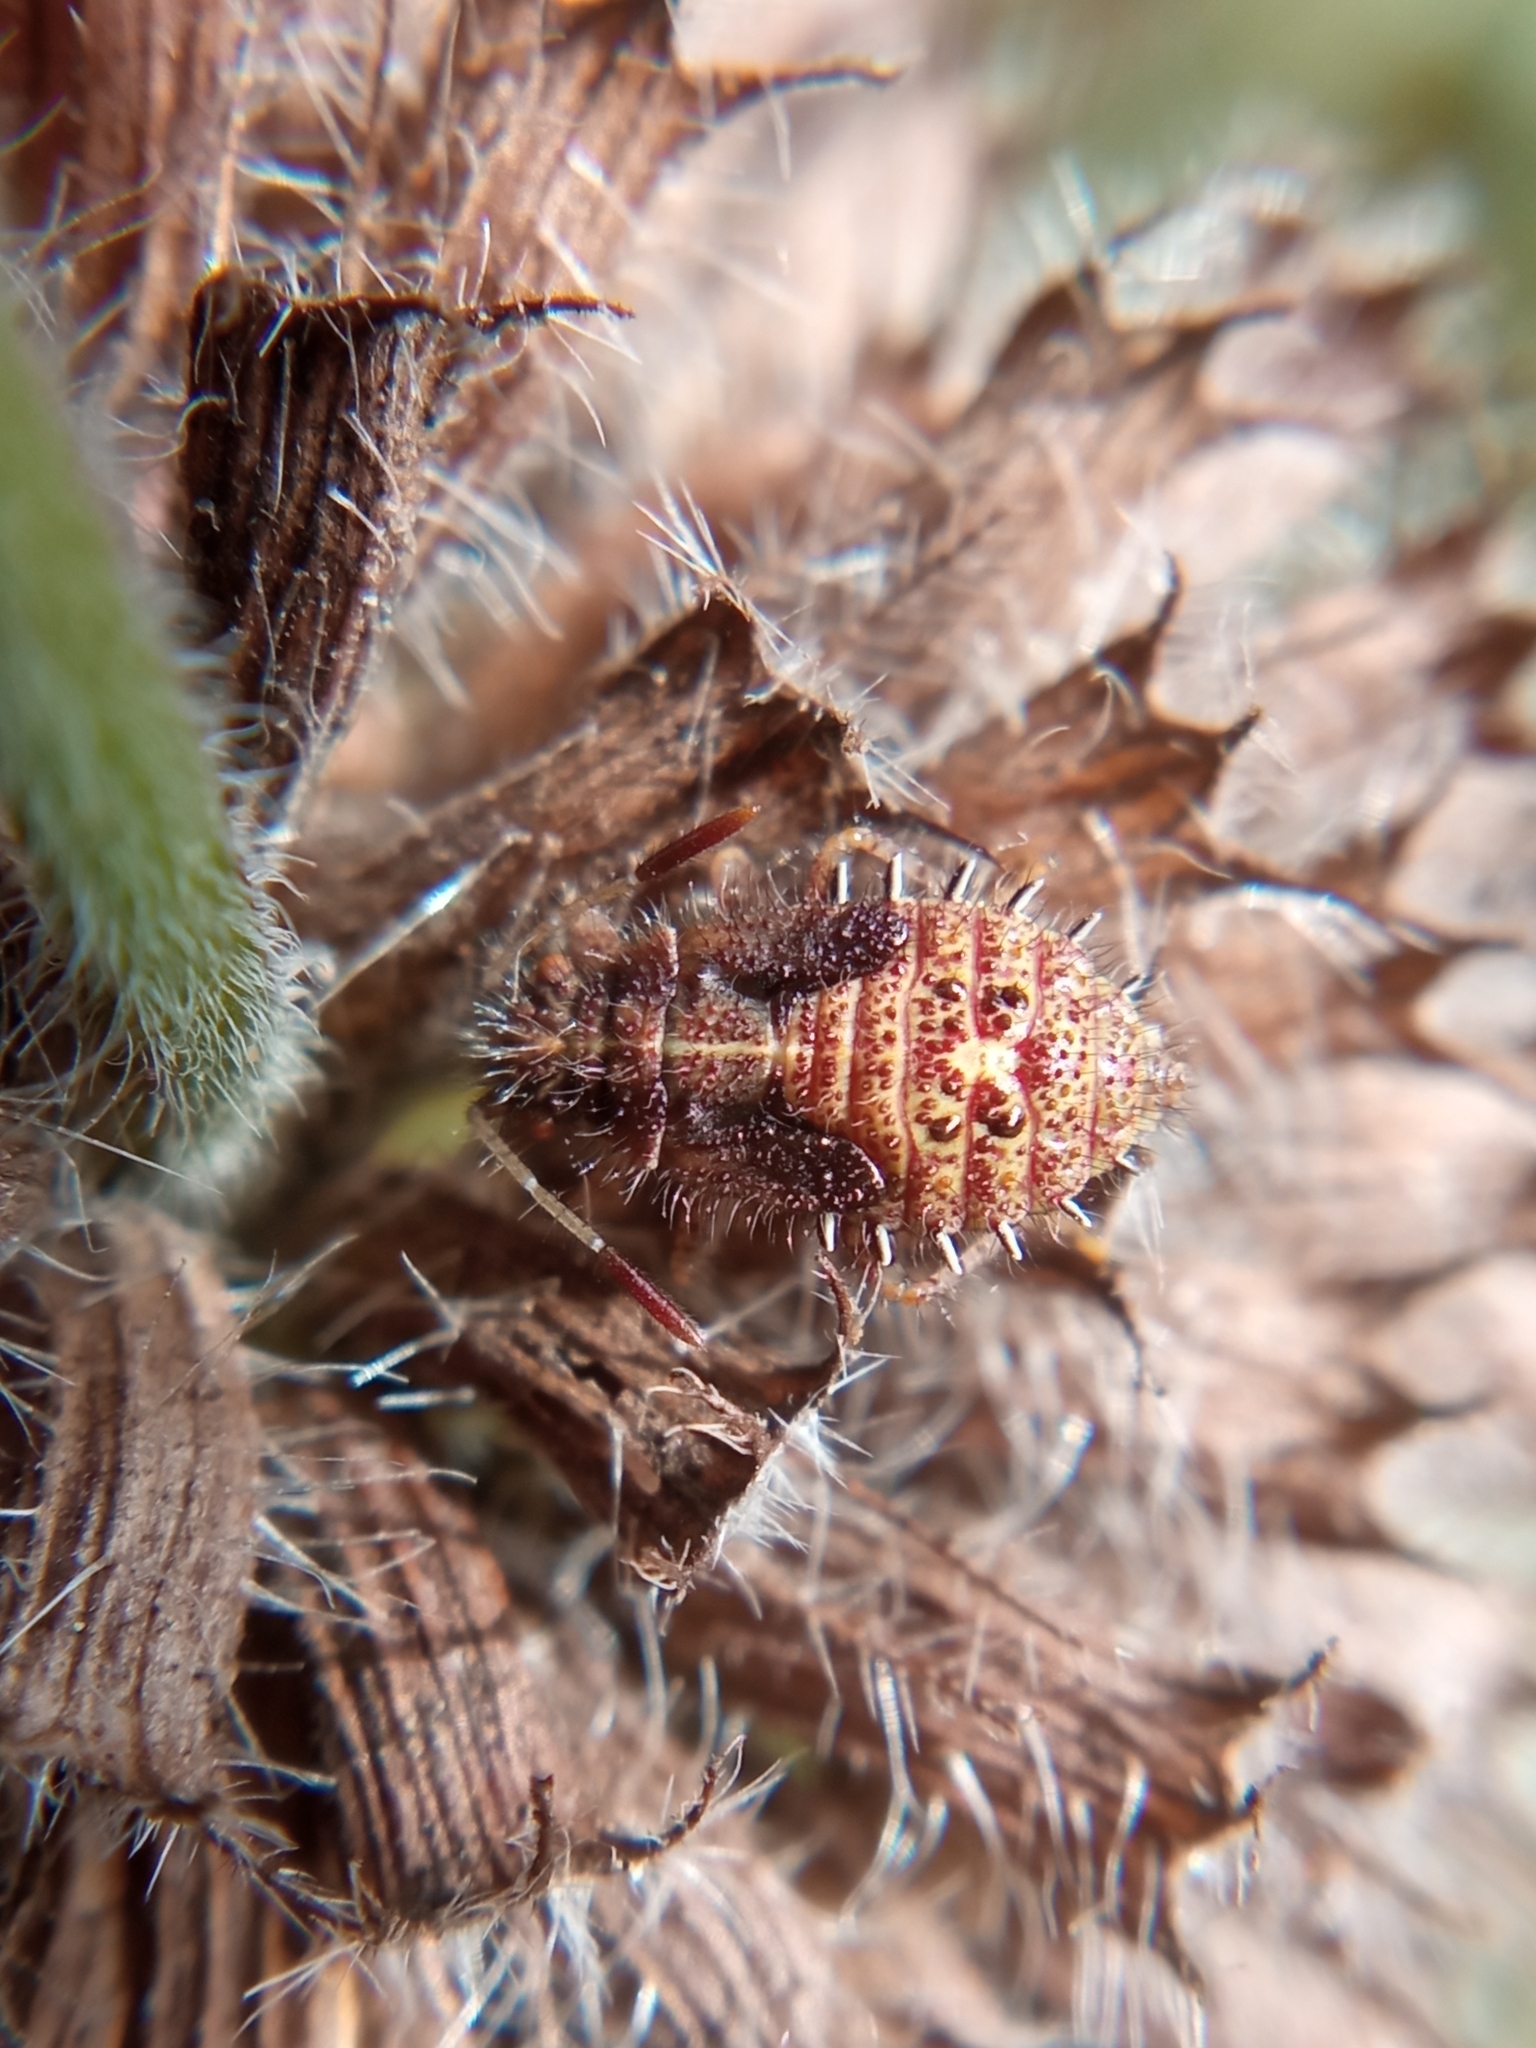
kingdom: Animalia
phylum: Arthropoda
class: Insecta
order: Hemiptera
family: Rhopalidae
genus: Rhopalus
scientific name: Rhopalus subrufus
